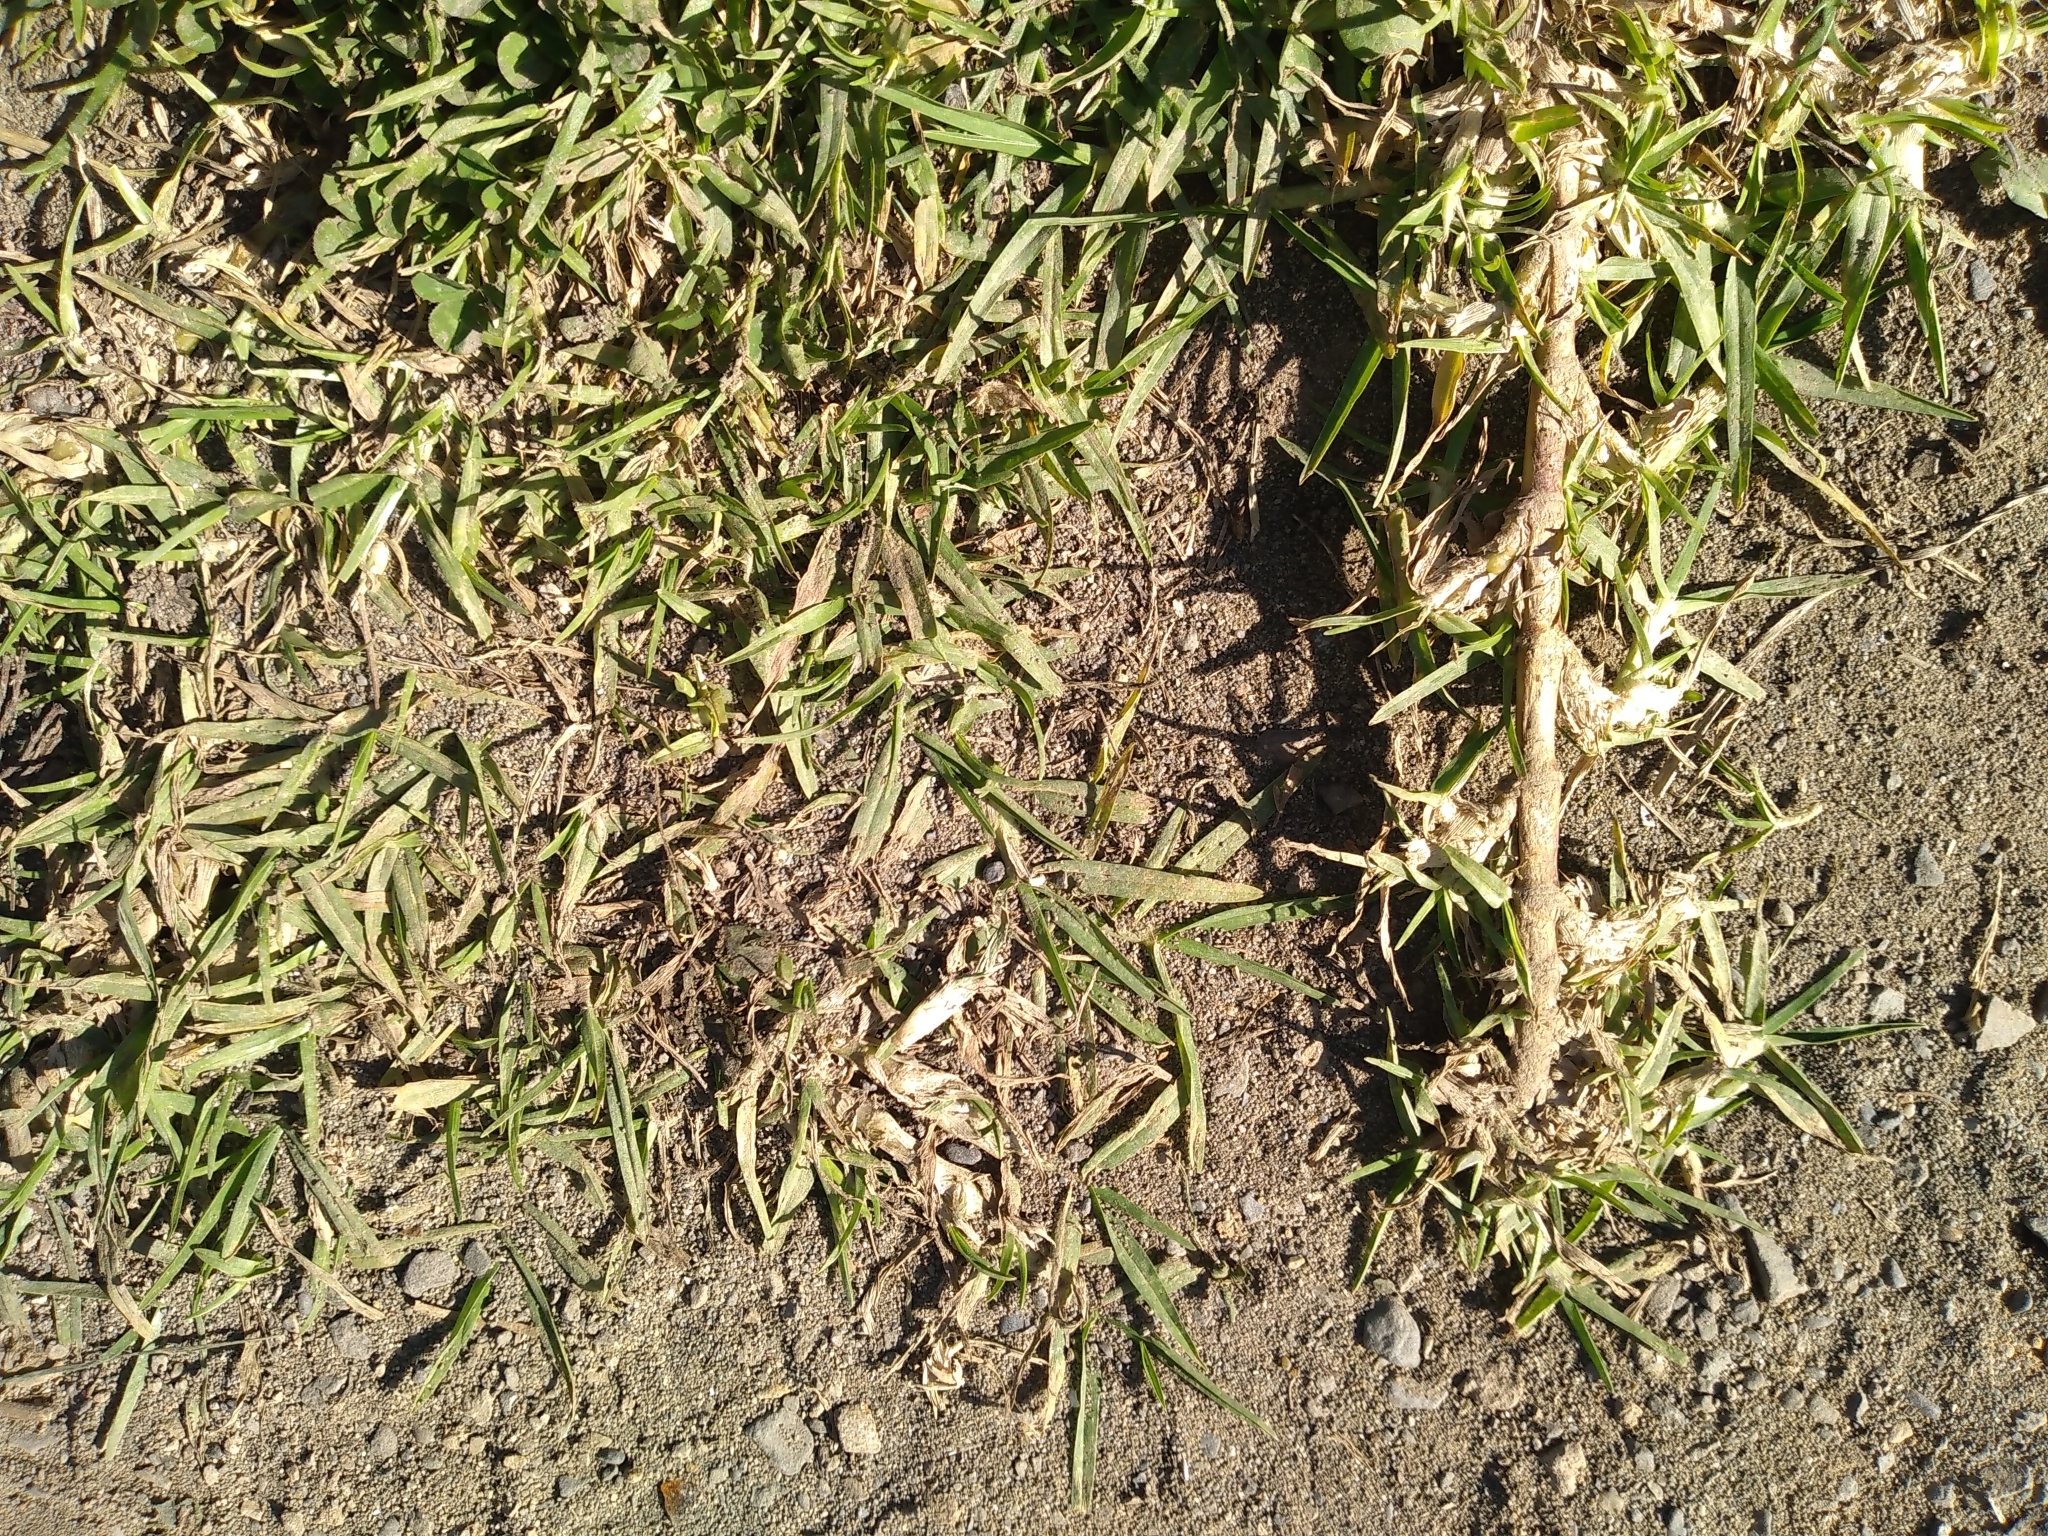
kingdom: Plantae
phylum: Tracheophyta
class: Liliopsida
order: Poales
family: Poaceae
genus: Cenchrus
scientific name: Cenchrus clandestinus
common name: Kikuyugrass
